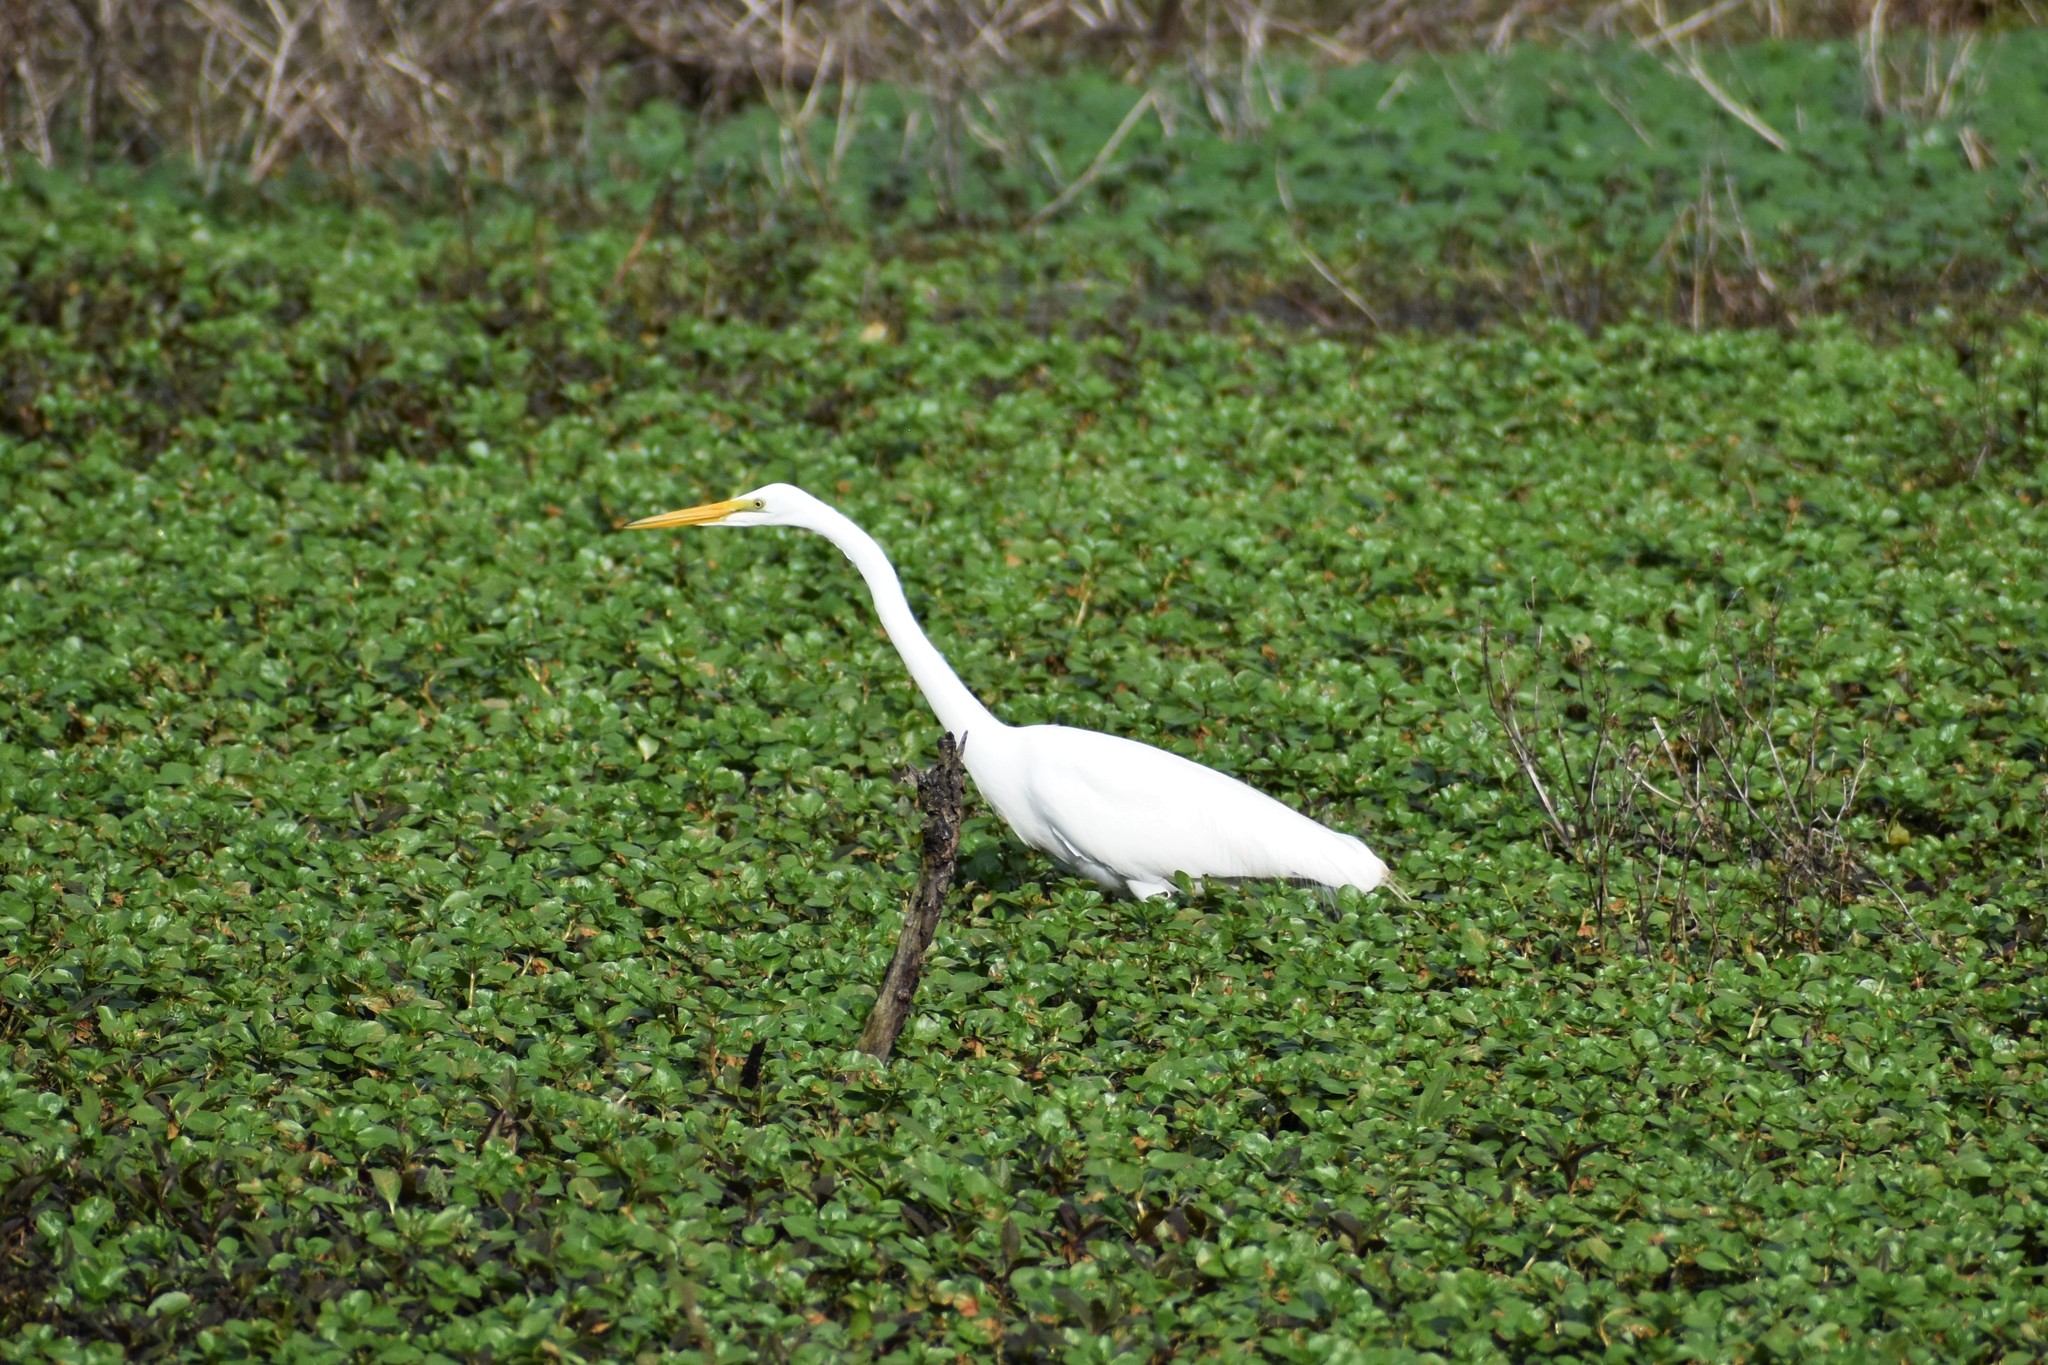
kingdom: Animalia
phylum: Chordata
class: Aves
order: Pelecaniformes
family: Ardeidae
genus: Ardea
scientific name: Ardea alba
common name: Great egret
